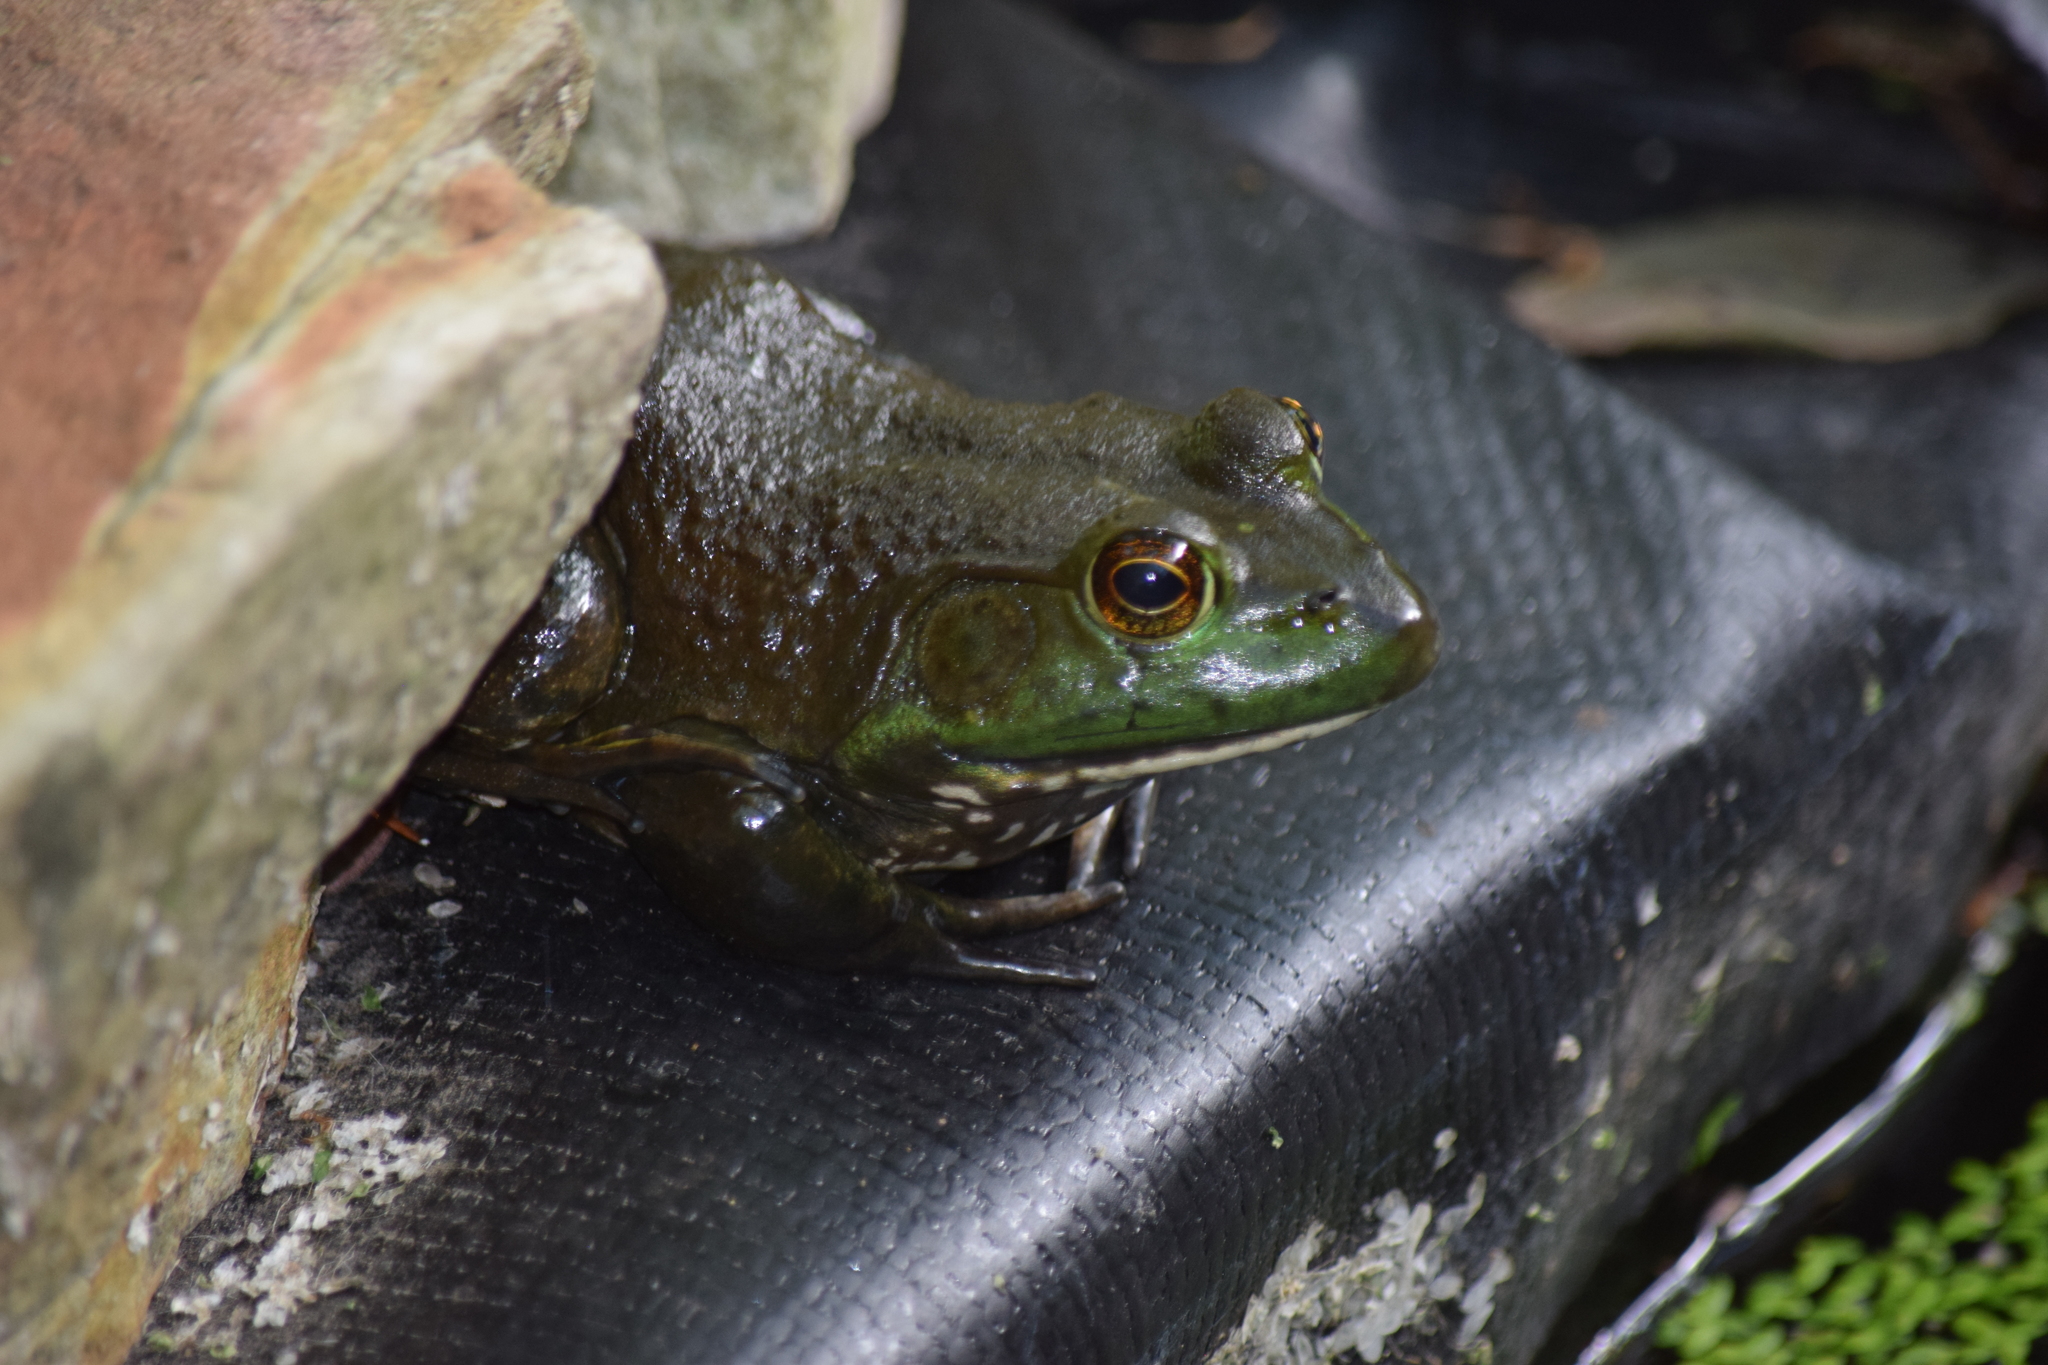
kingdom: Animalia
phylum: Chordata
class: Amphibia
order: Anura
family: Ranidae
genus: Lithobates
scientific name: Lithobates catesbeianus
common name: American bullfrog
